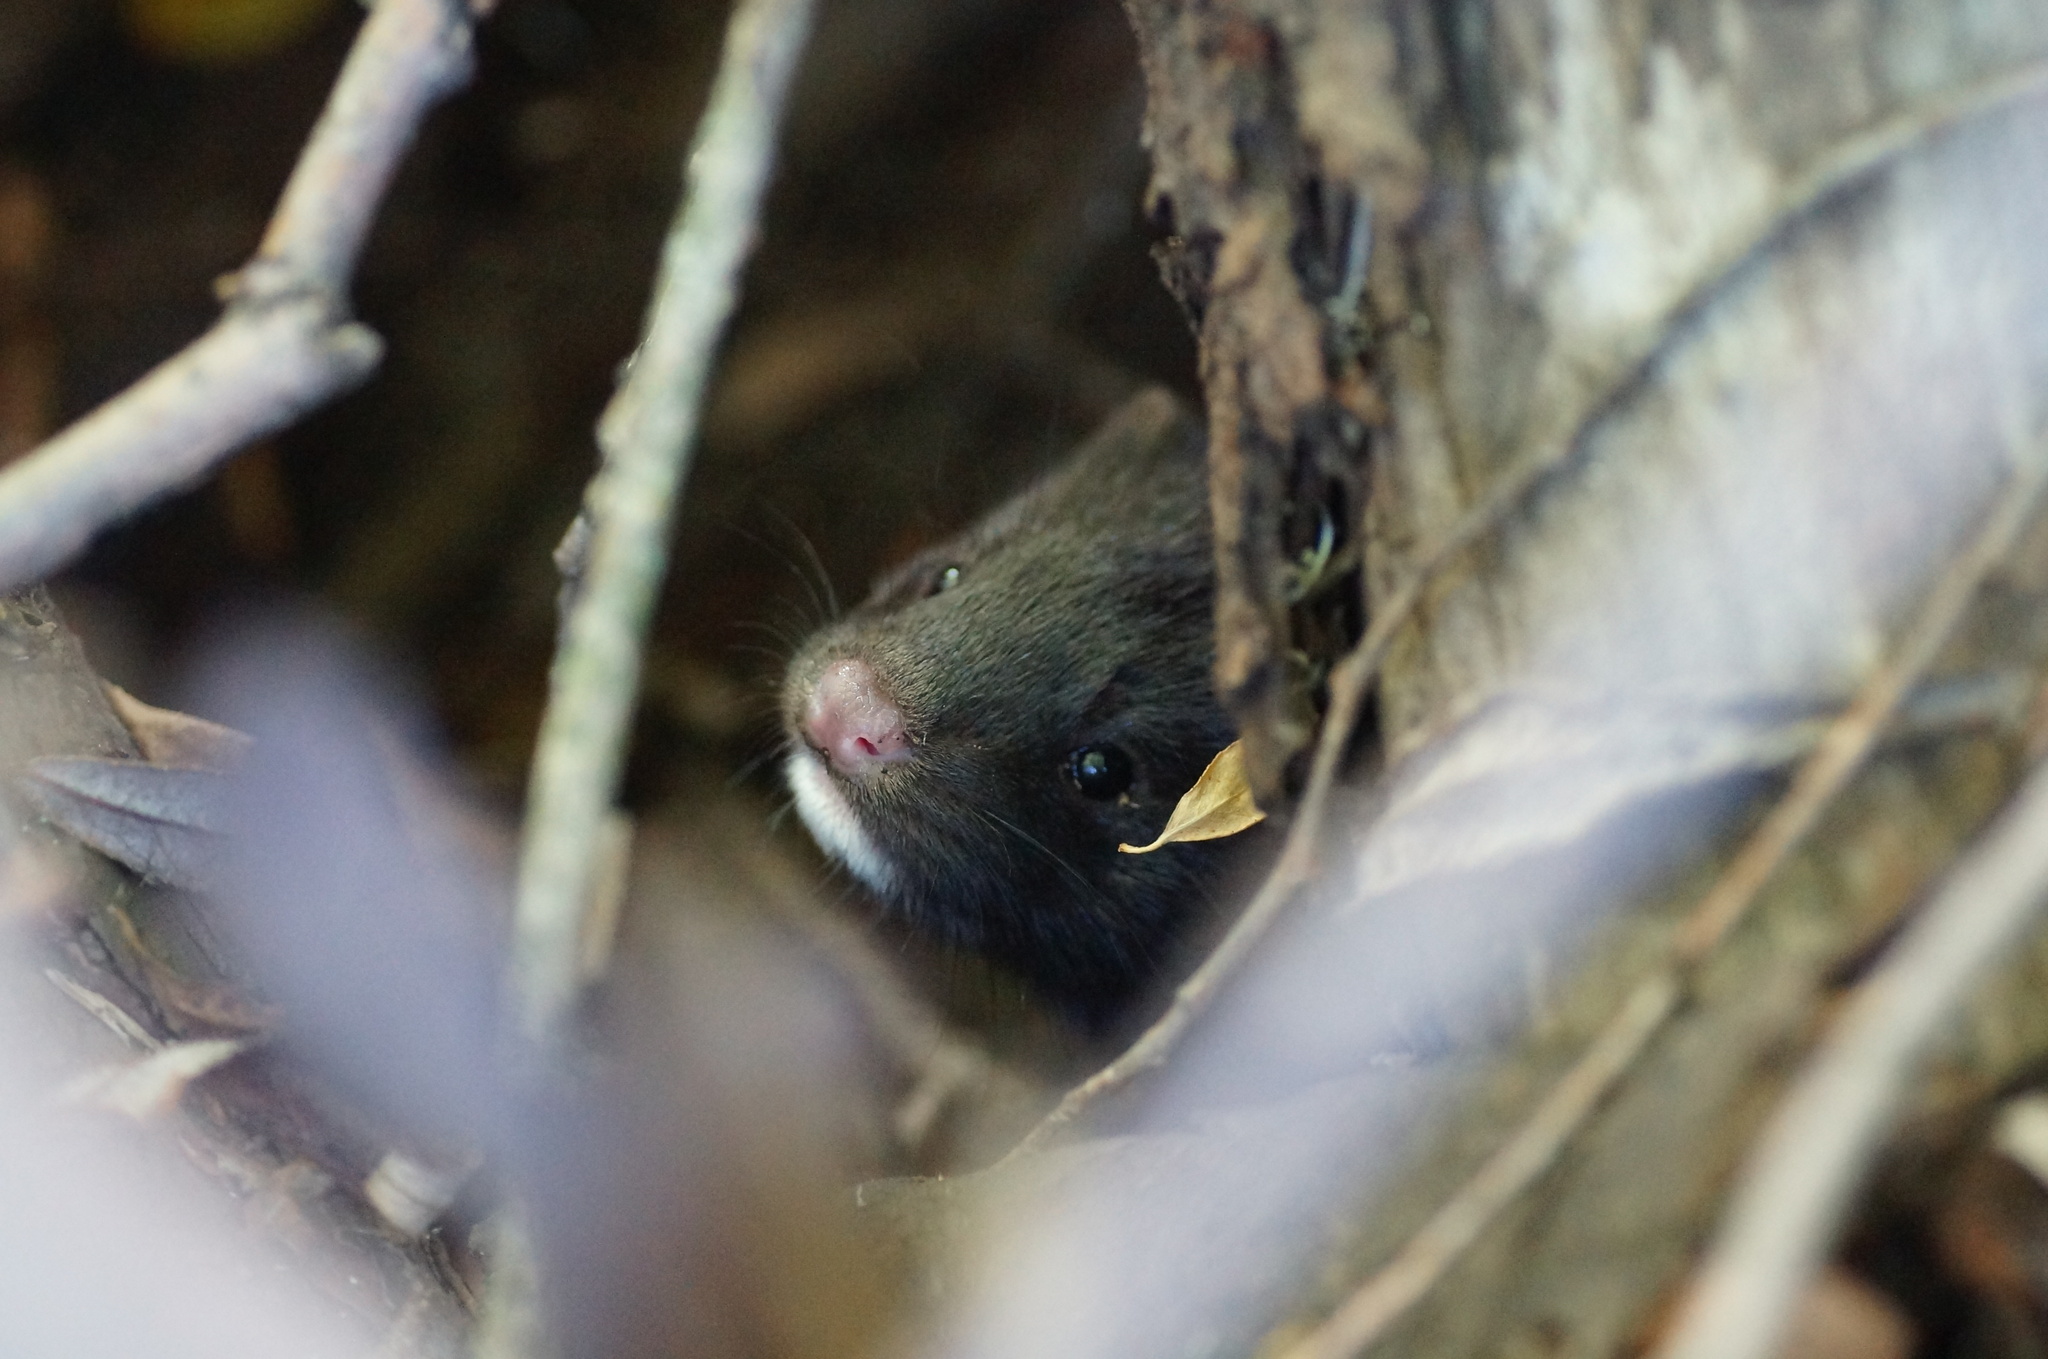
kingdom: Animalia
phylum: Chordata
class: Mammalia
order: Carnivora
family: Mustelidae
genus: Mustela
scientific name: Mustela
